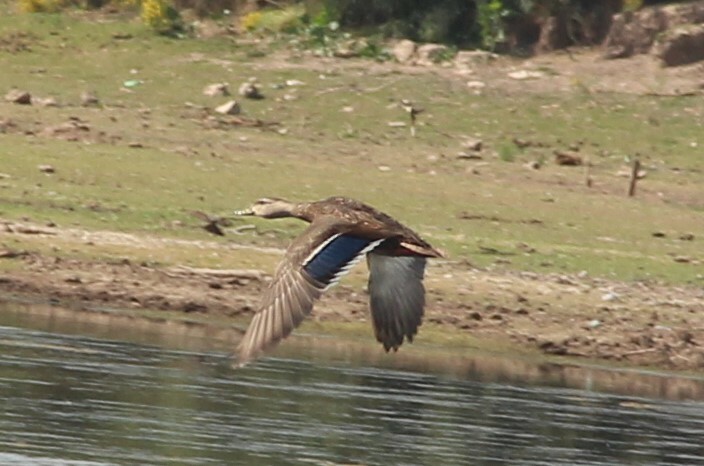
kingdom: Animalia
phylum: Chordata
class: Aves
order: Anseriformes
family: Anatidae
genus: Anas
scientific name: Anas diazi
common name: Mexican duck
